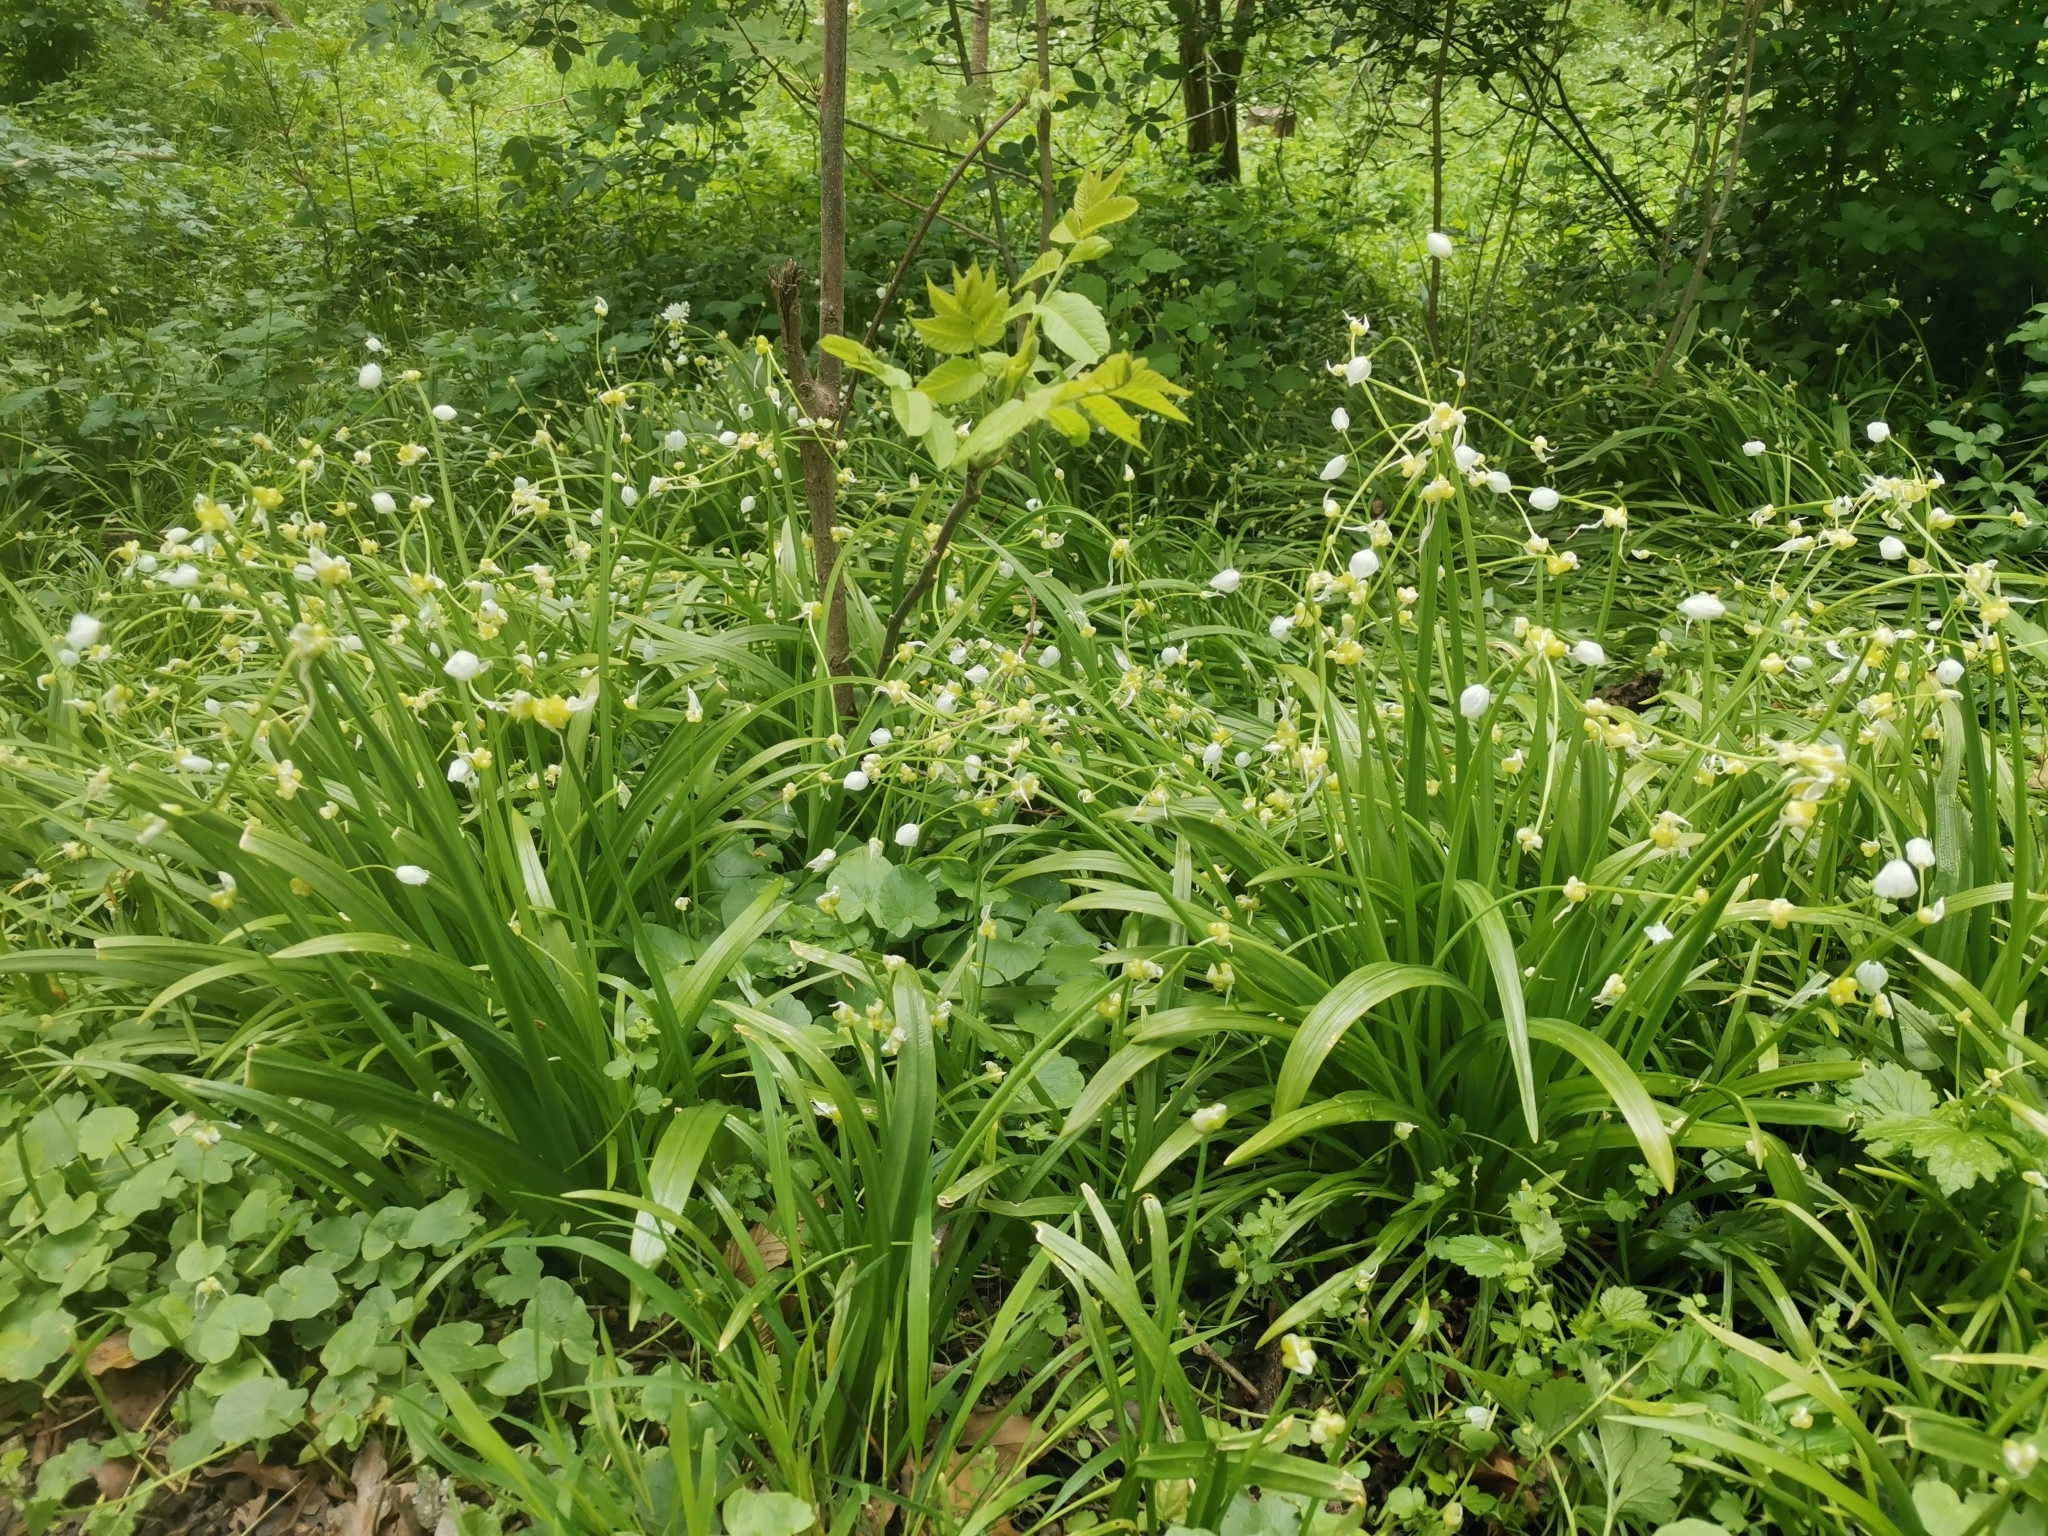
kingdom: Plantae
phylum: Tracheophyta
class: Liliopsida
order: Asparagales
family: Amaryllidaceae
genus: Allium
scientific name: Allium paradoxum
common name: Few-flowered garlic
